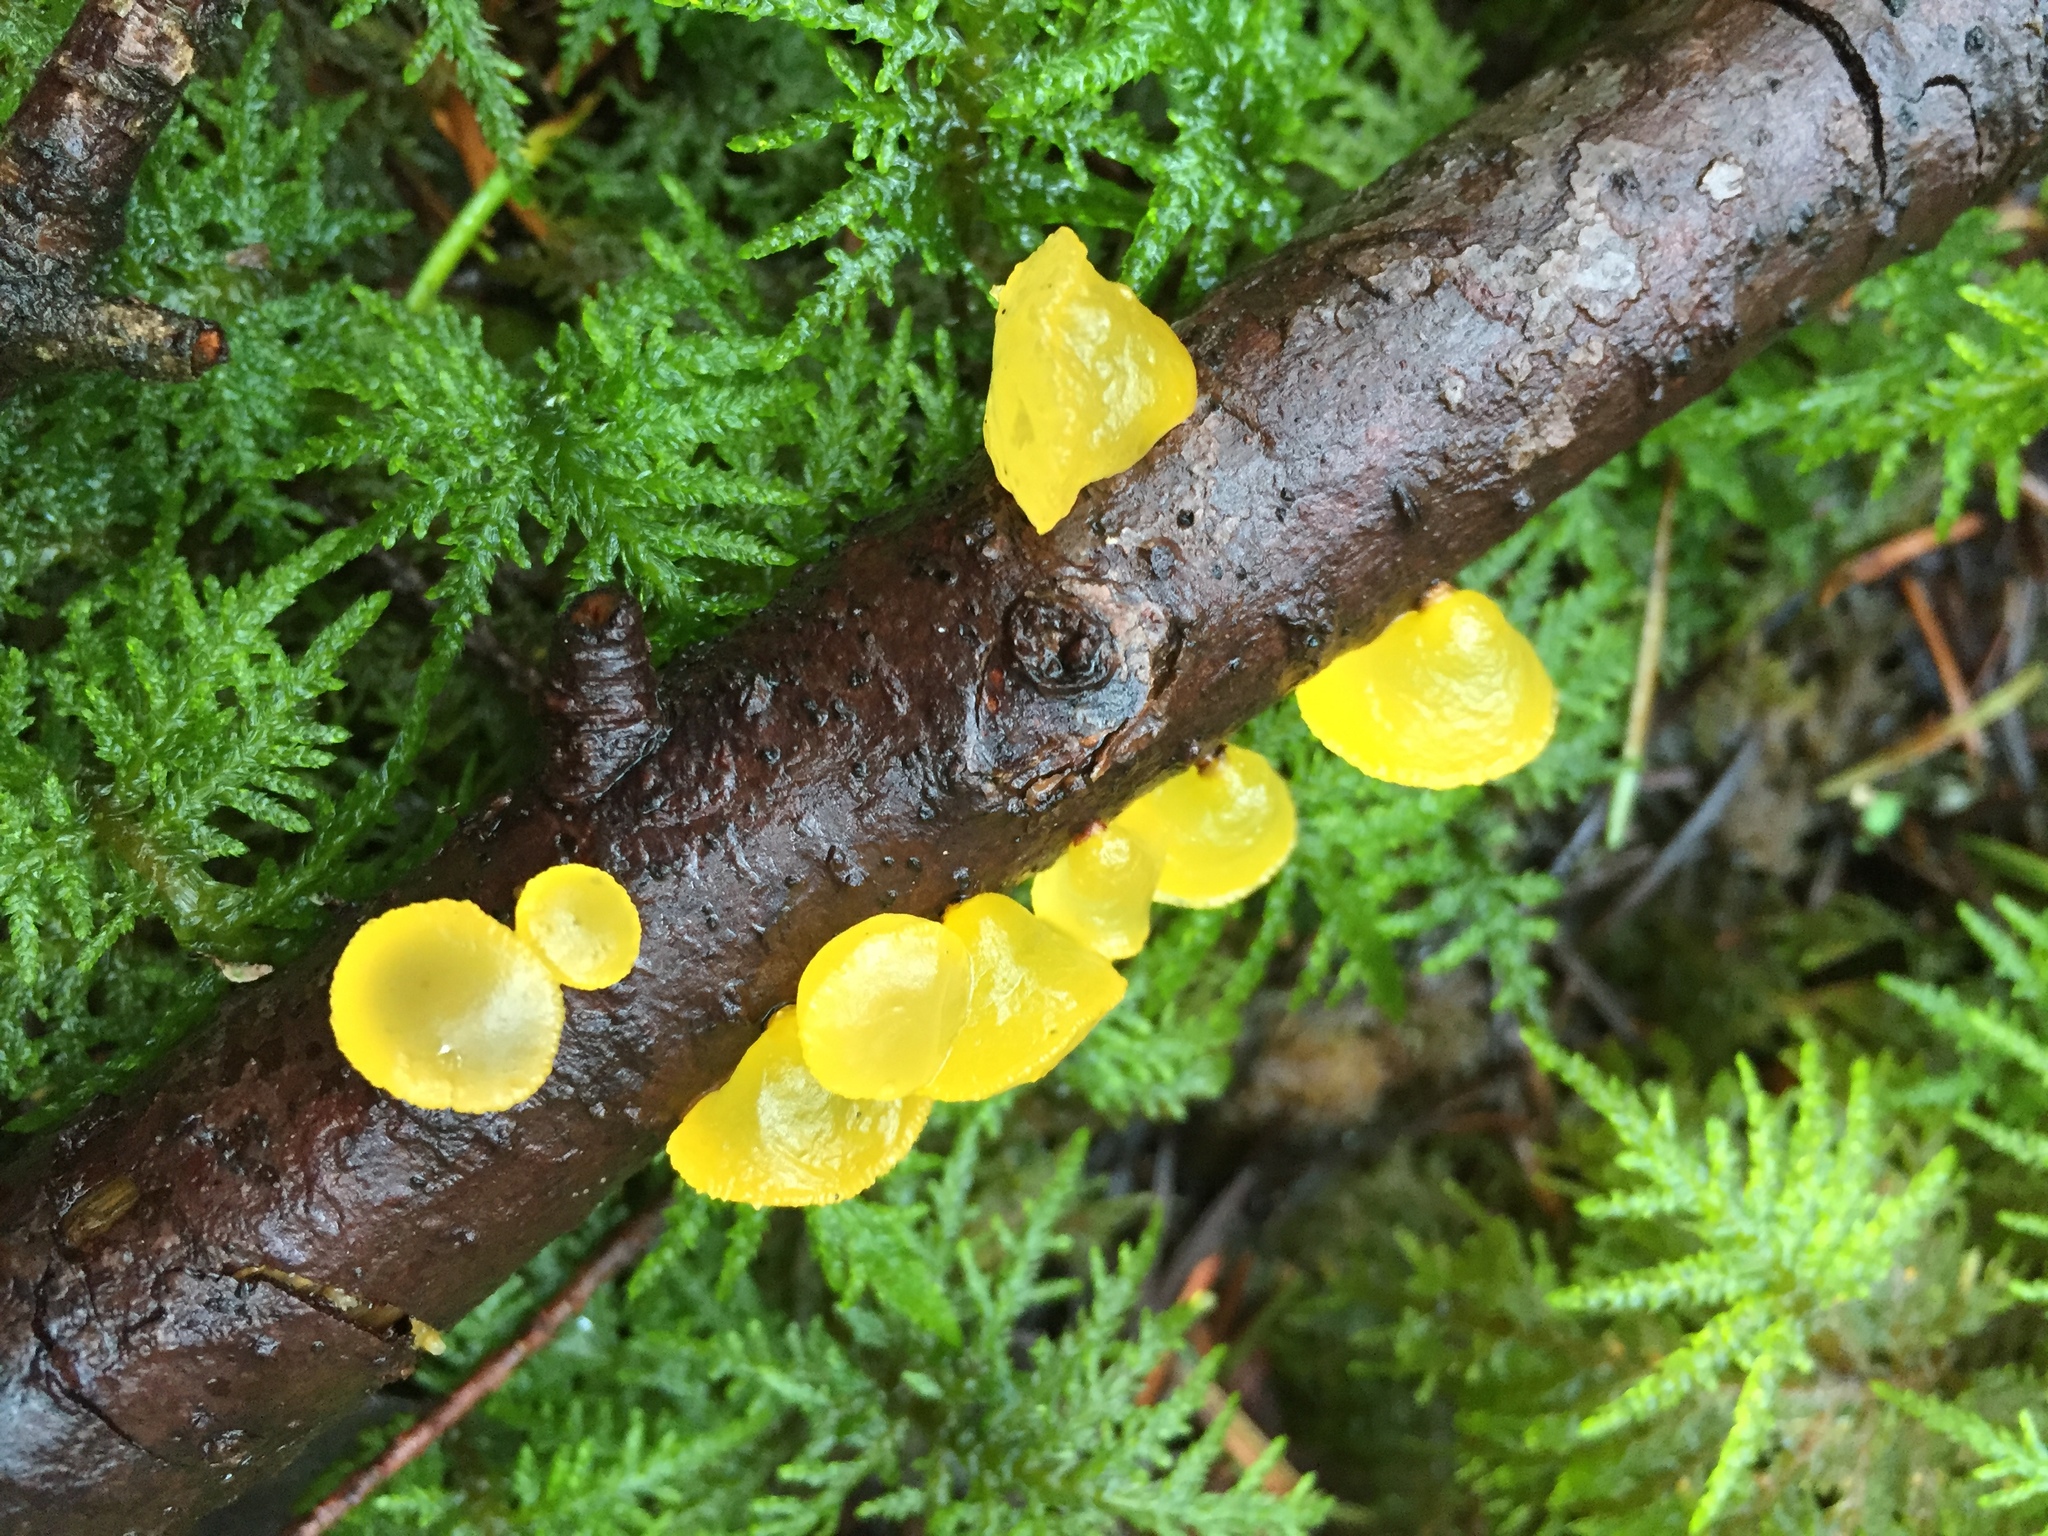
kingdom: Fungi
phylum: Basidiomycota
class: Dacrymycetes
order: Dacrymycetales
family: Dacrymycetaceae
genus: Guepiniopsis
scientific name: Guepiniopsis alpina
